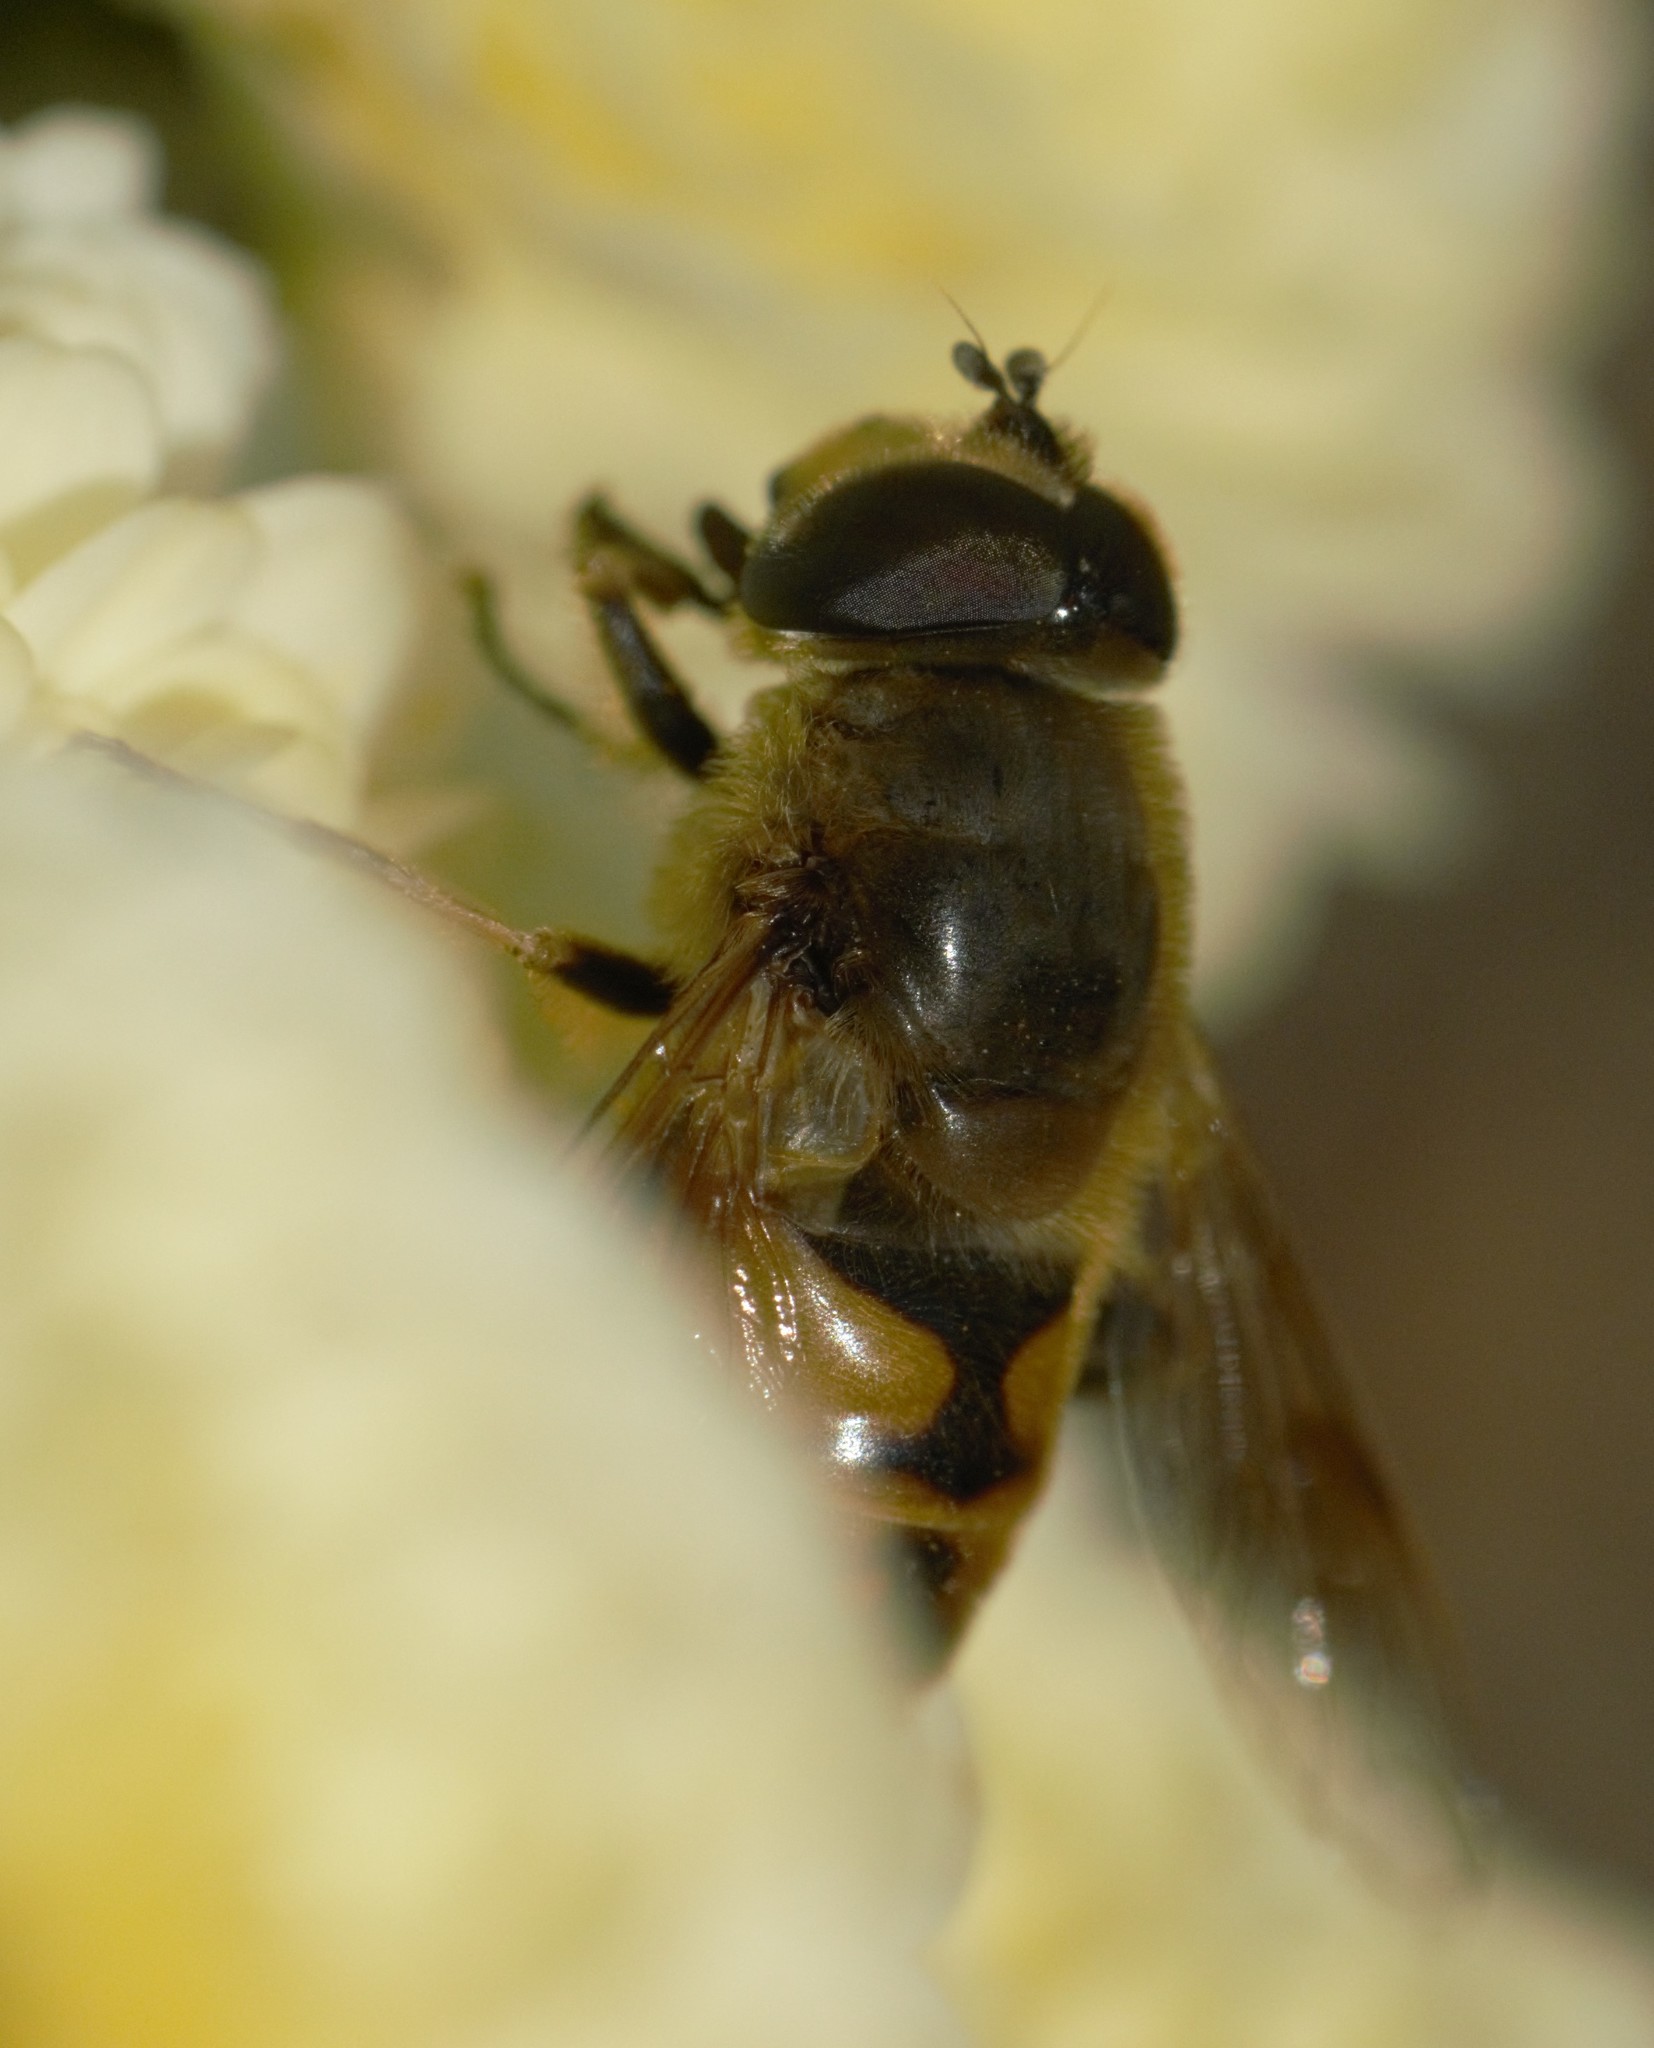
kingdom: Animalia
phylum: Arthropoda
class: Insecta
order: Diptera
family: Syrphidae
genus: Eristalis
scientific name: Eristalis tenax
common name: Drone fly
